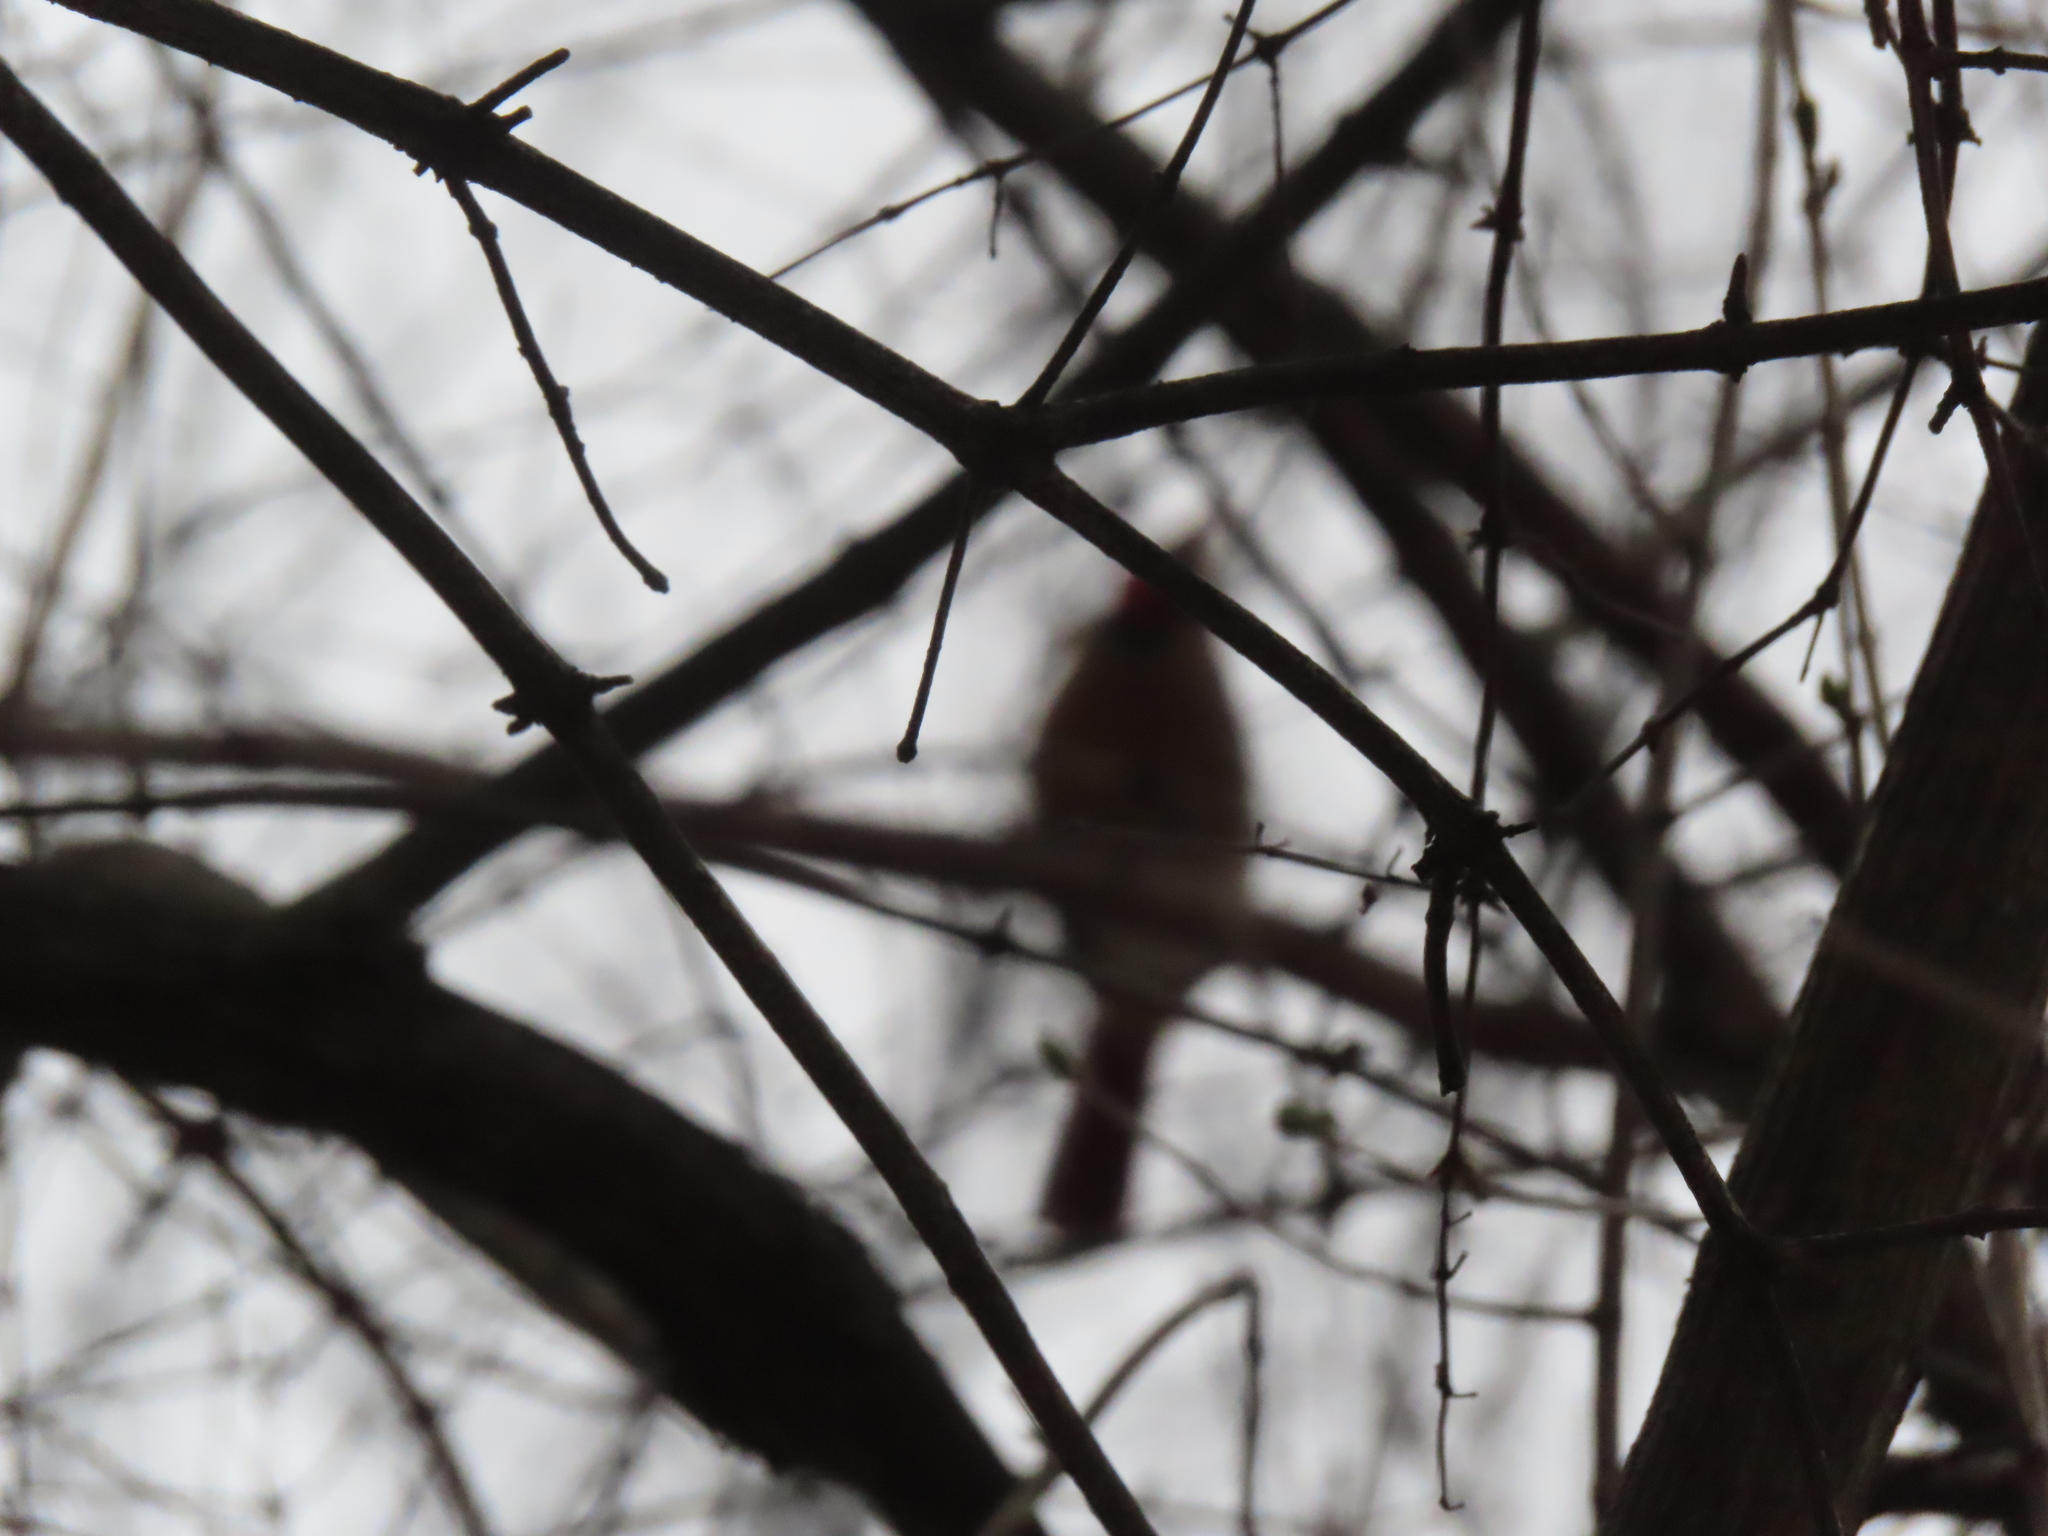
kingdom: Animalia
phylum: Chordata
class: Aves
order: Passeriformes
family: Cardinalidae
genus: Cardinalis
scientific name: Cardinalis cardinalis
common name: Northern cardinal
